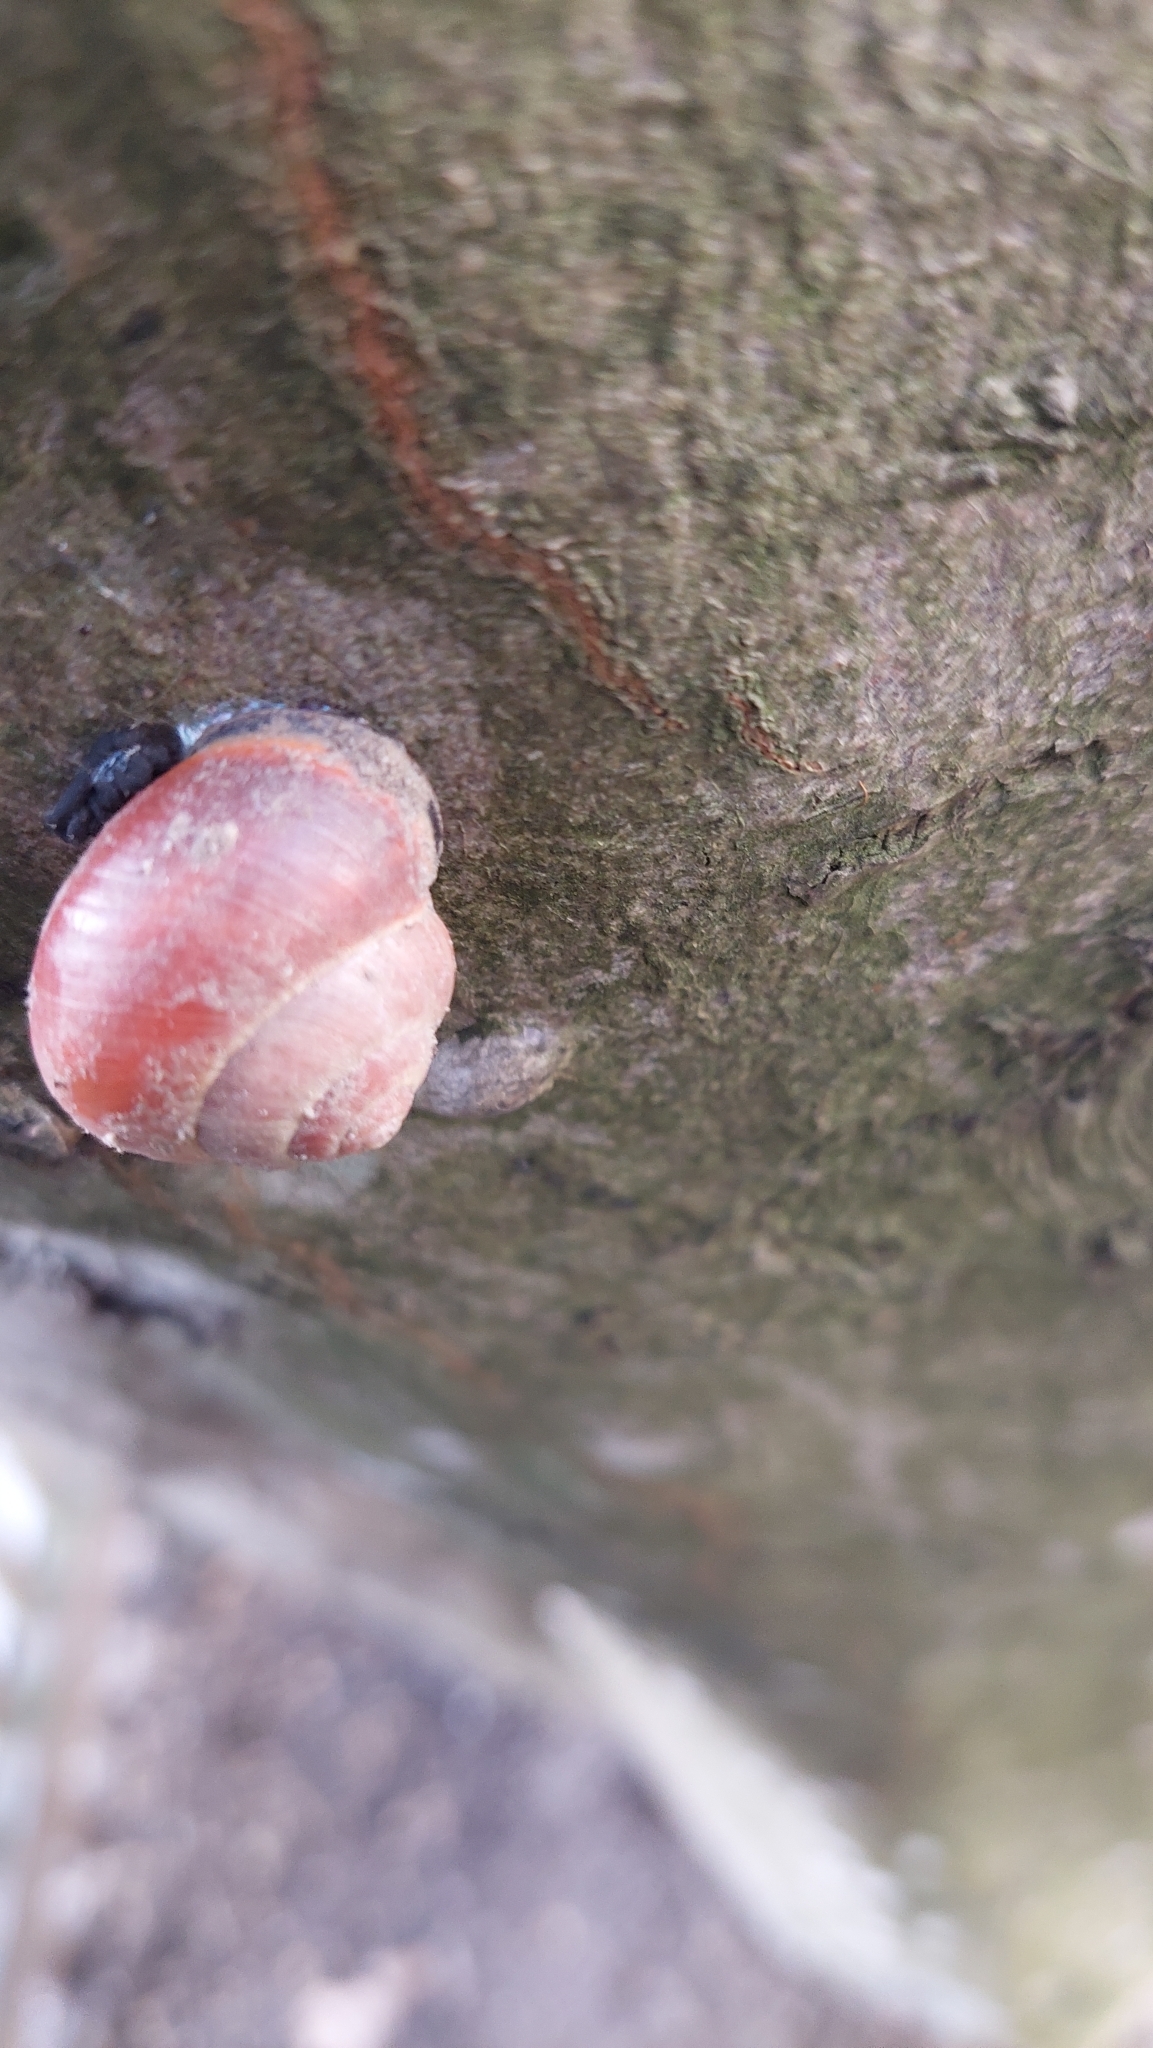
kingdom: Animalia
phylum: Mollusca
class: Gastropoda
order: Stylommatophora
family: Helicidae
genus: Cepaea
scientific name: Cepaea nemoralis
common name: Grovesnail
